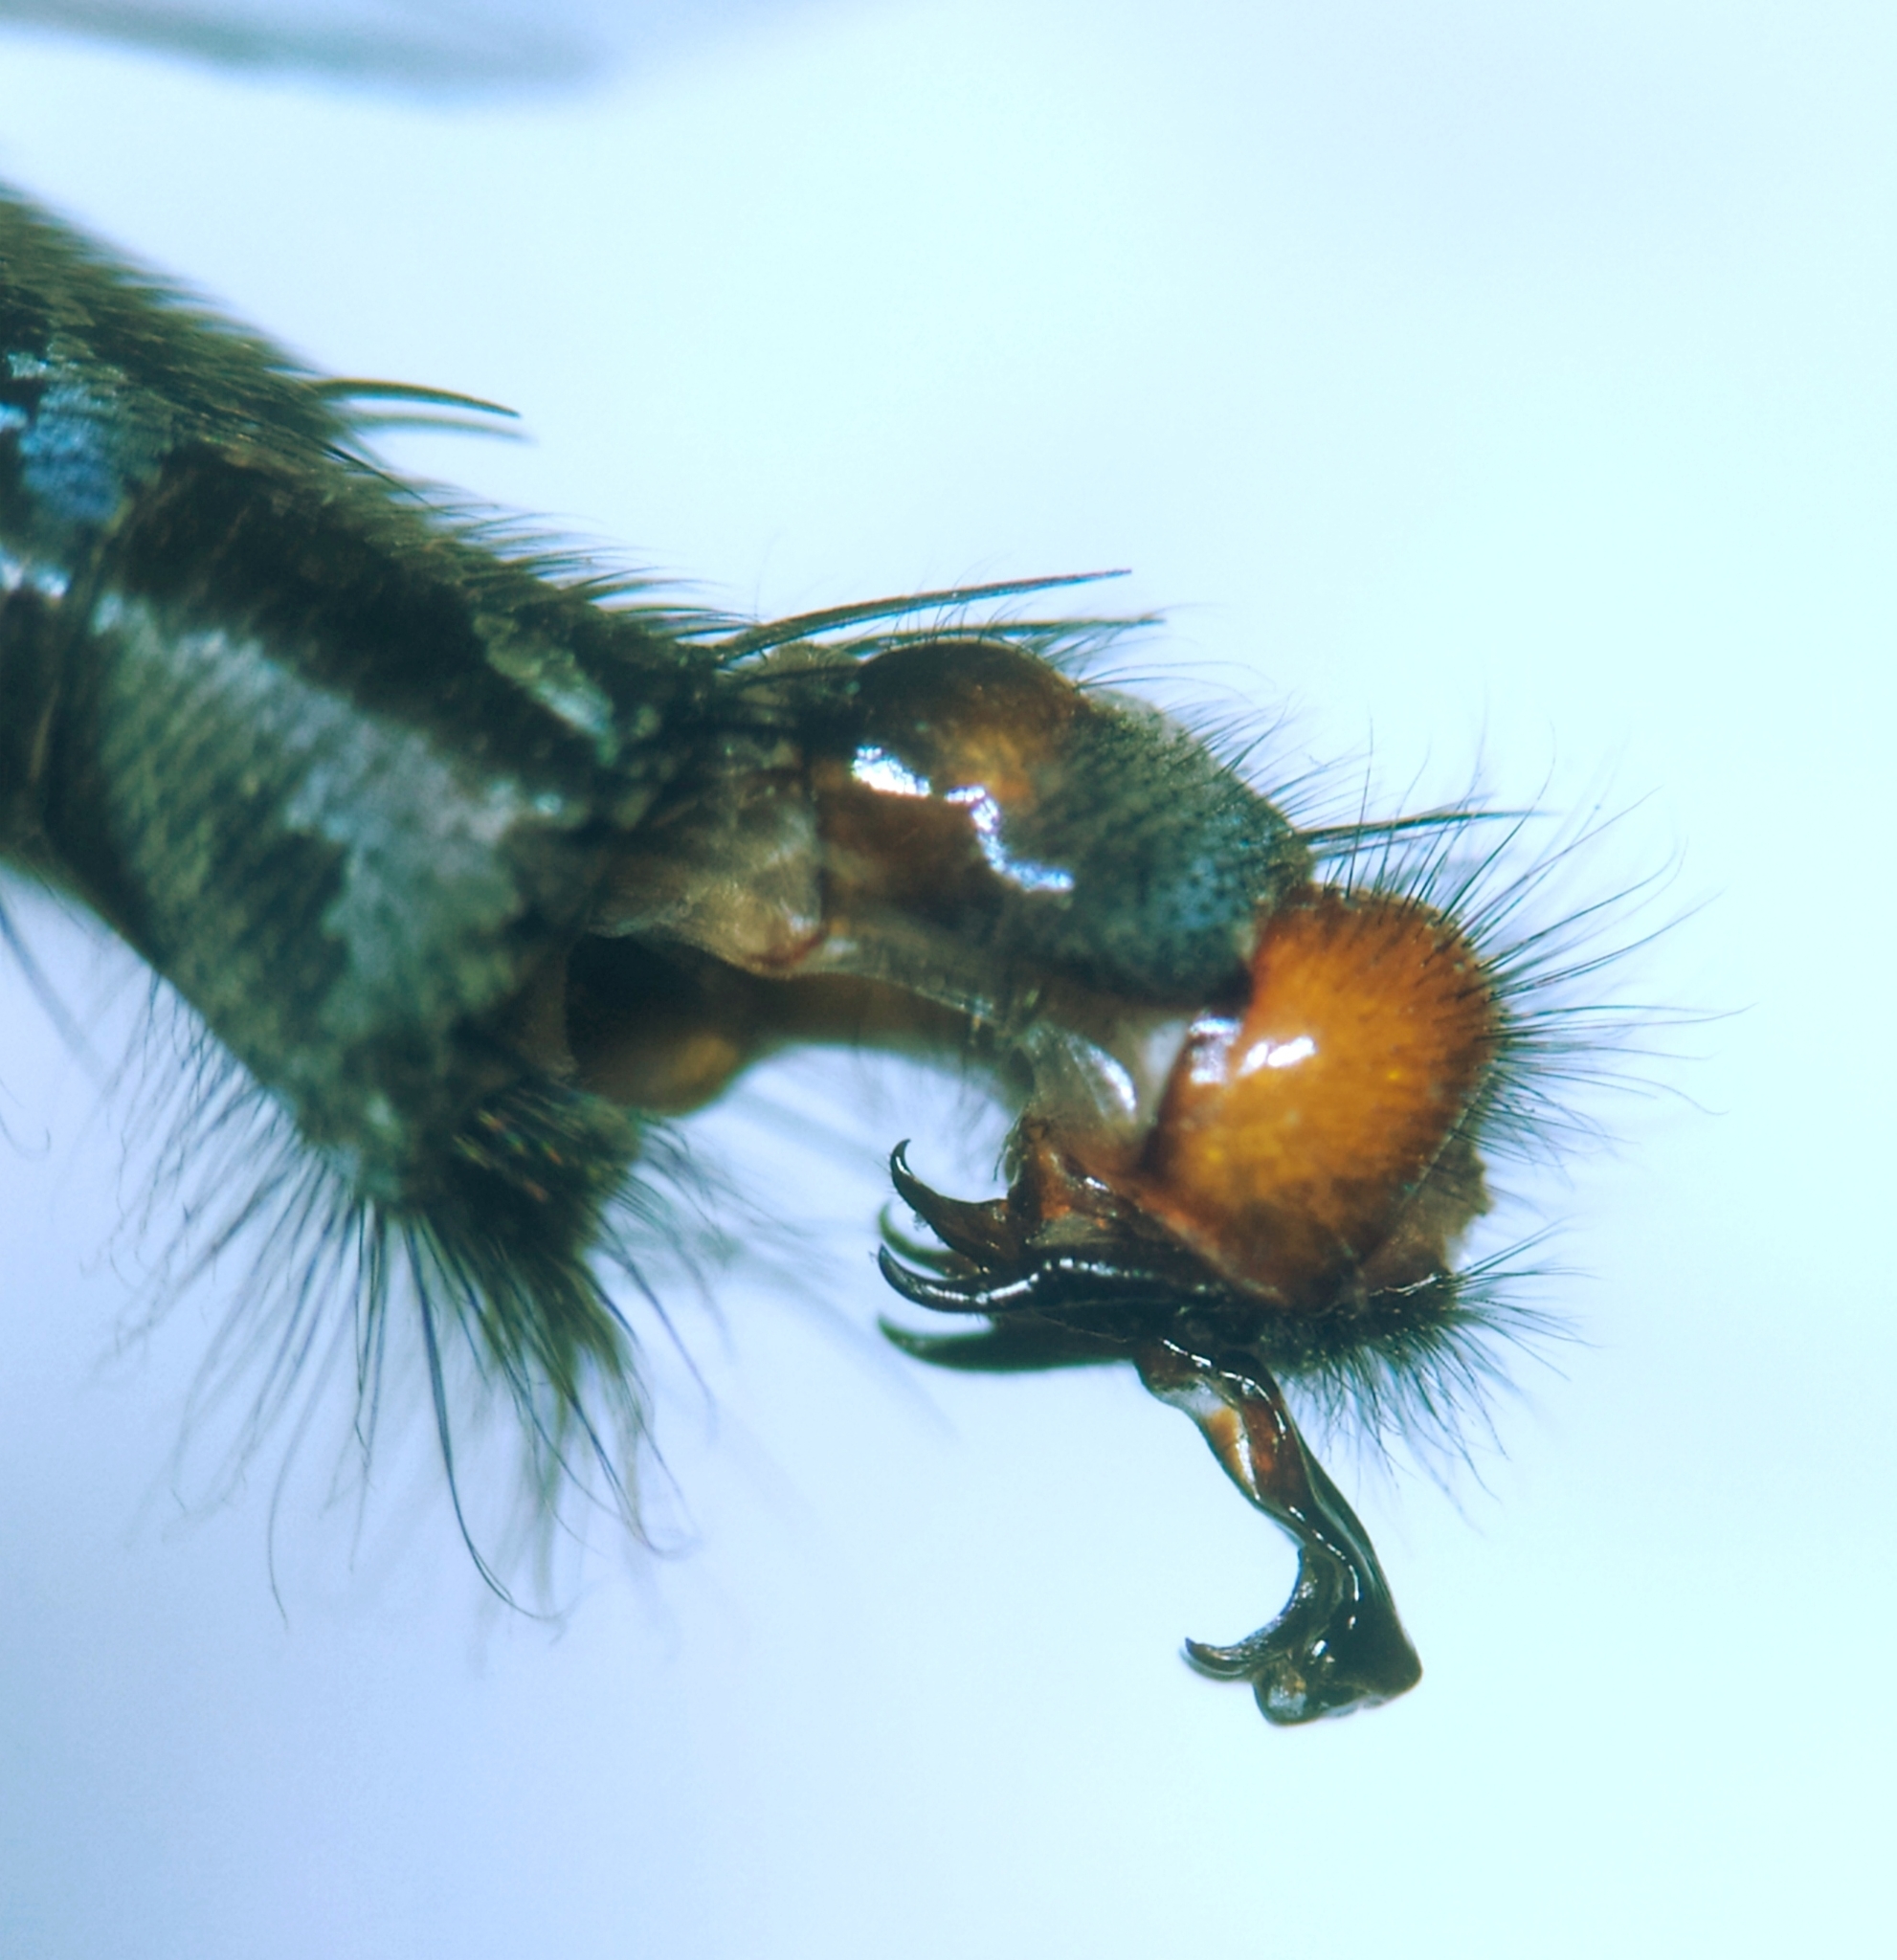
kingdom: Animalia
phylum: Arthropoda
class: Insecta
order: Diptera
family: Sarcophagidae
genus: Sarcophaga
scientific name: Sarcophaga africa
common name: Flesh fly
